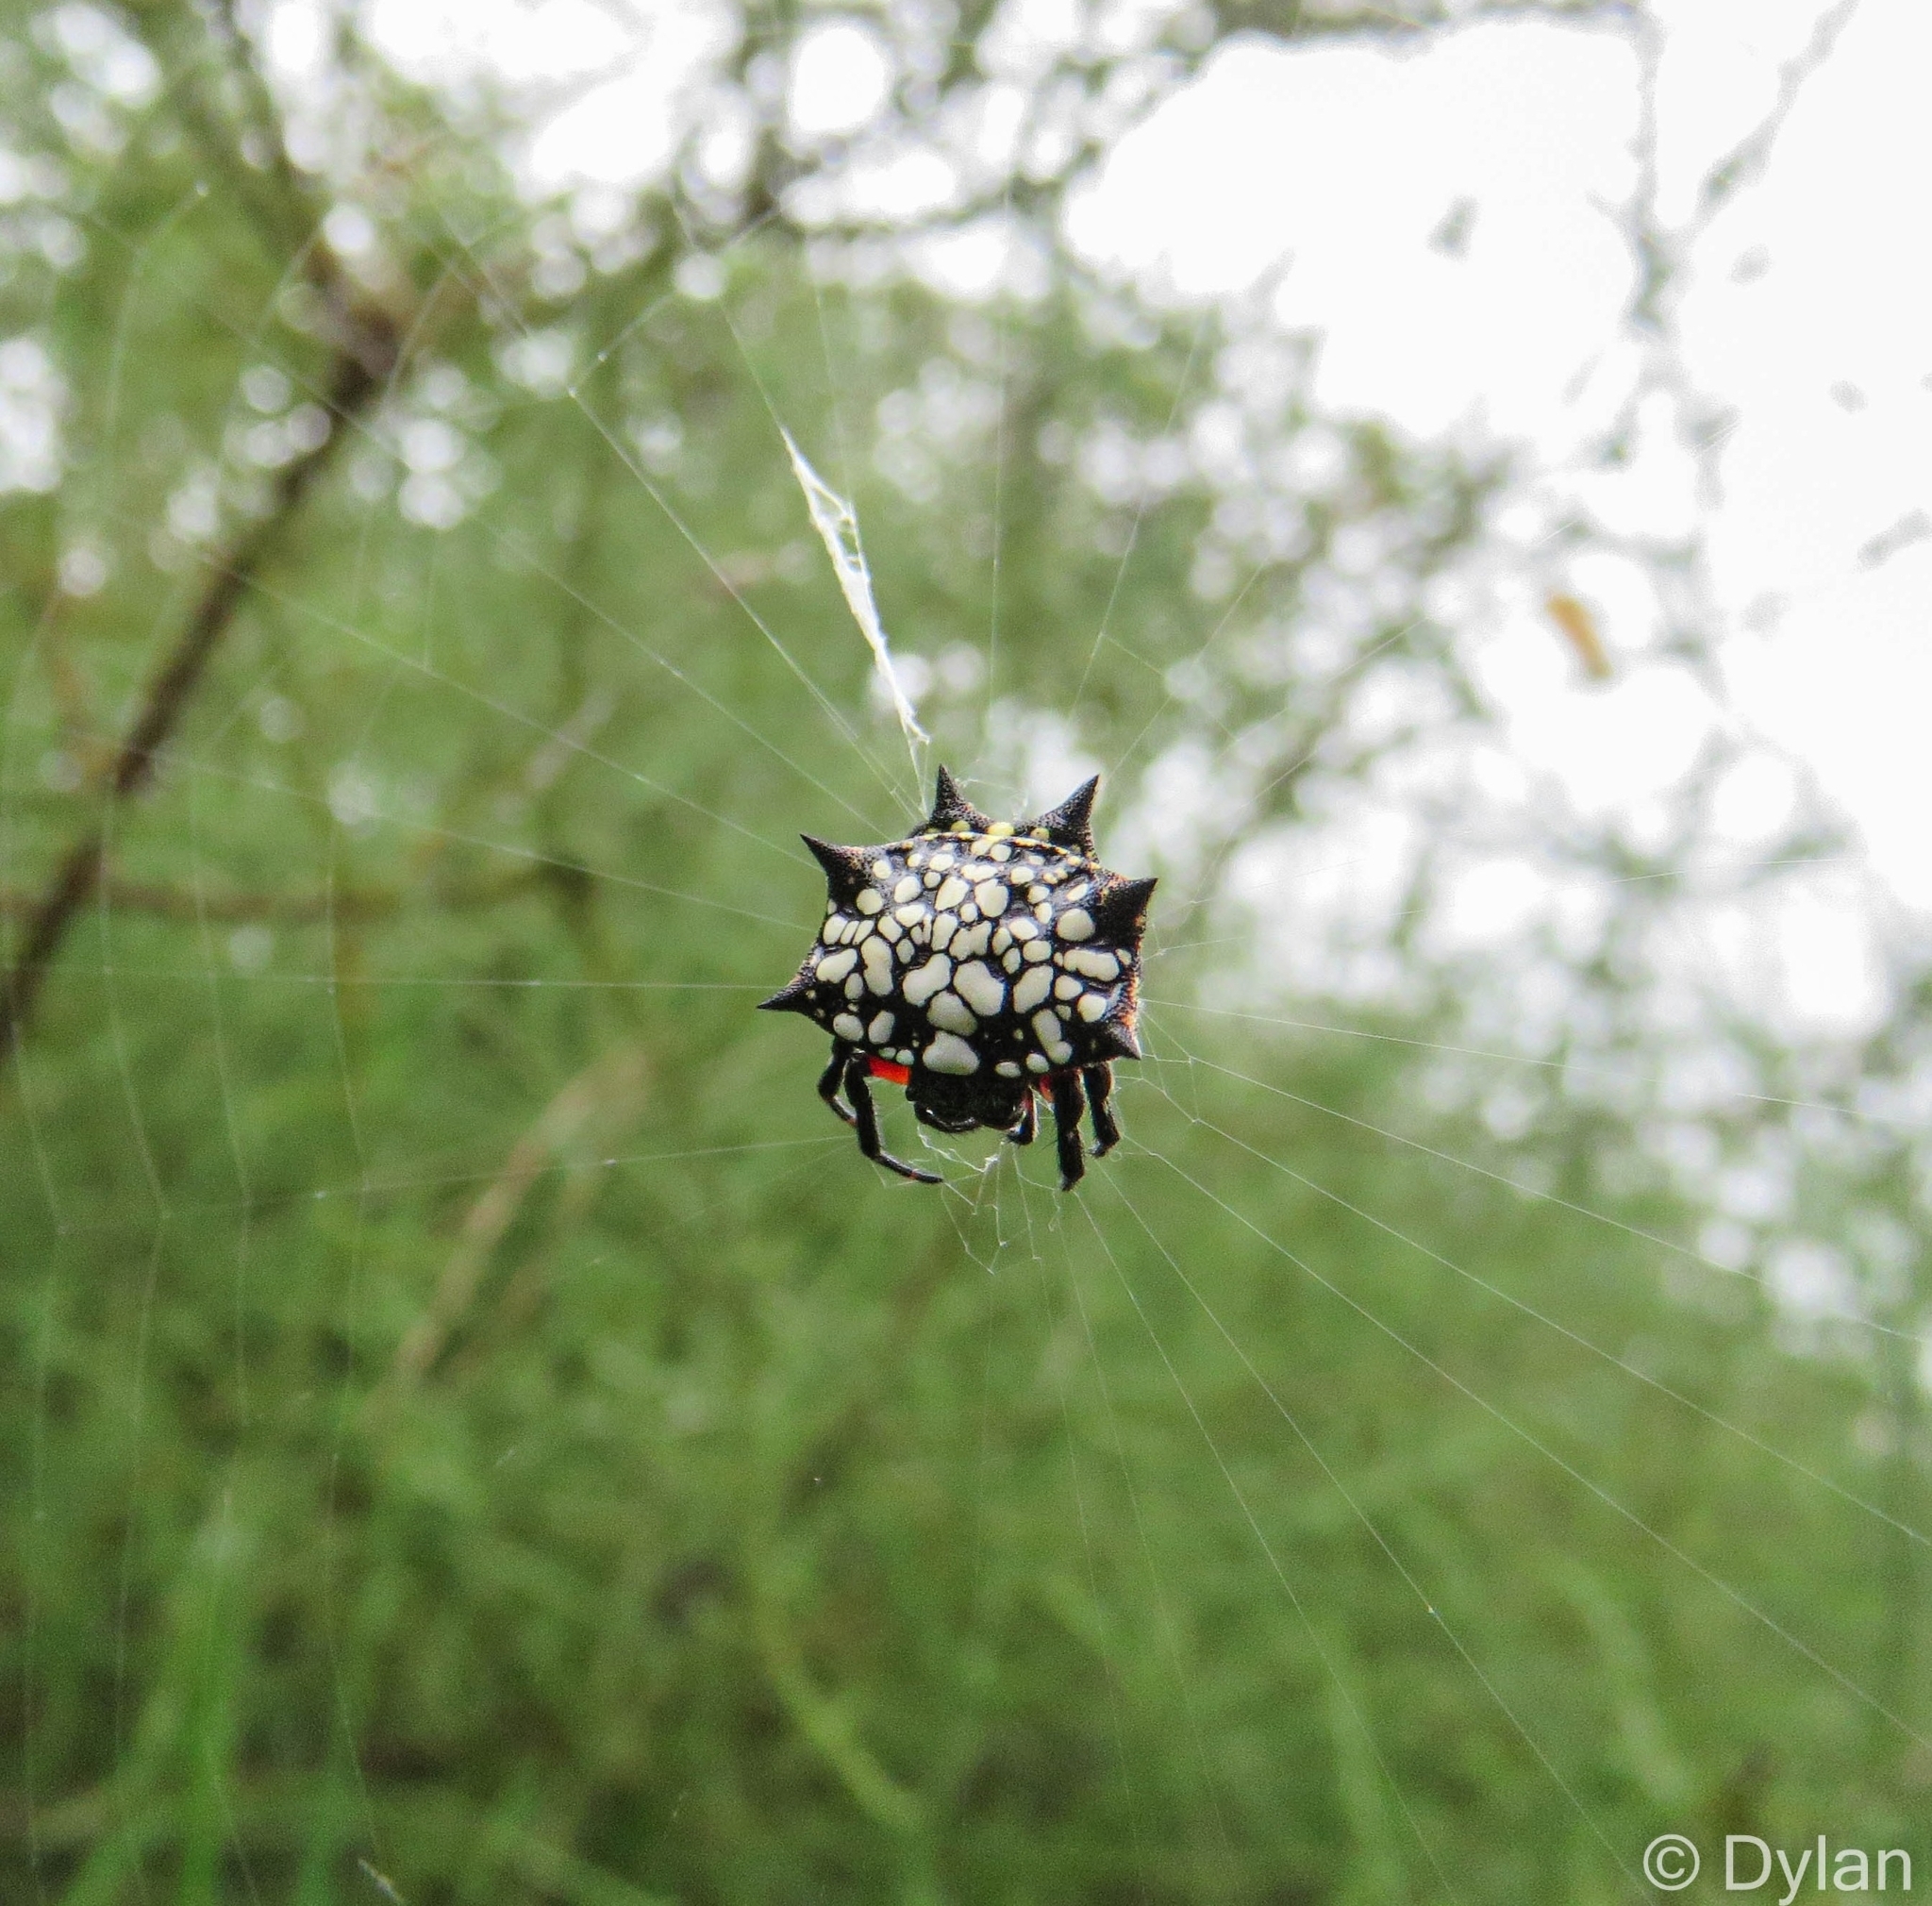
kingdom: Animalia
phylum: Arthropoda
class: Arachnida
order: Araneae
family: Araneidae
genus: Isoxya
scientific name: Isoxya cicatricosa
